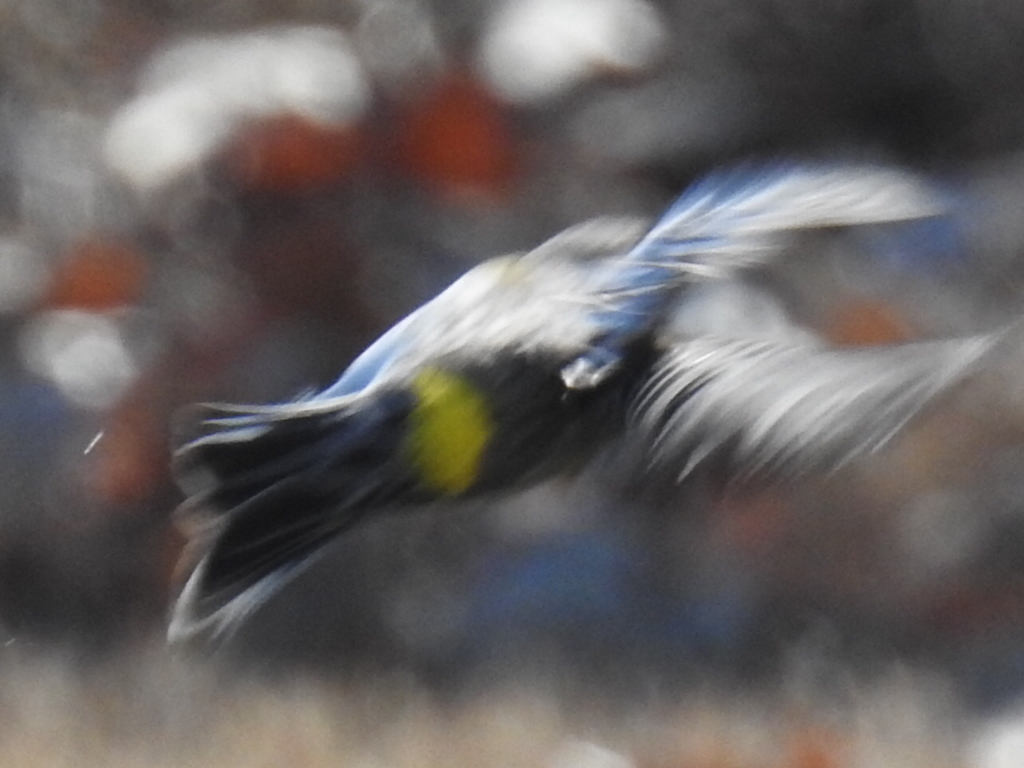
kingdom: Animalia
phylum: Chordata
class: Aves
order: Passeriformes
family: Parulidae
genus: Setophaga
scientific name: Setophaga coronata
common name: Myrtle warbler
